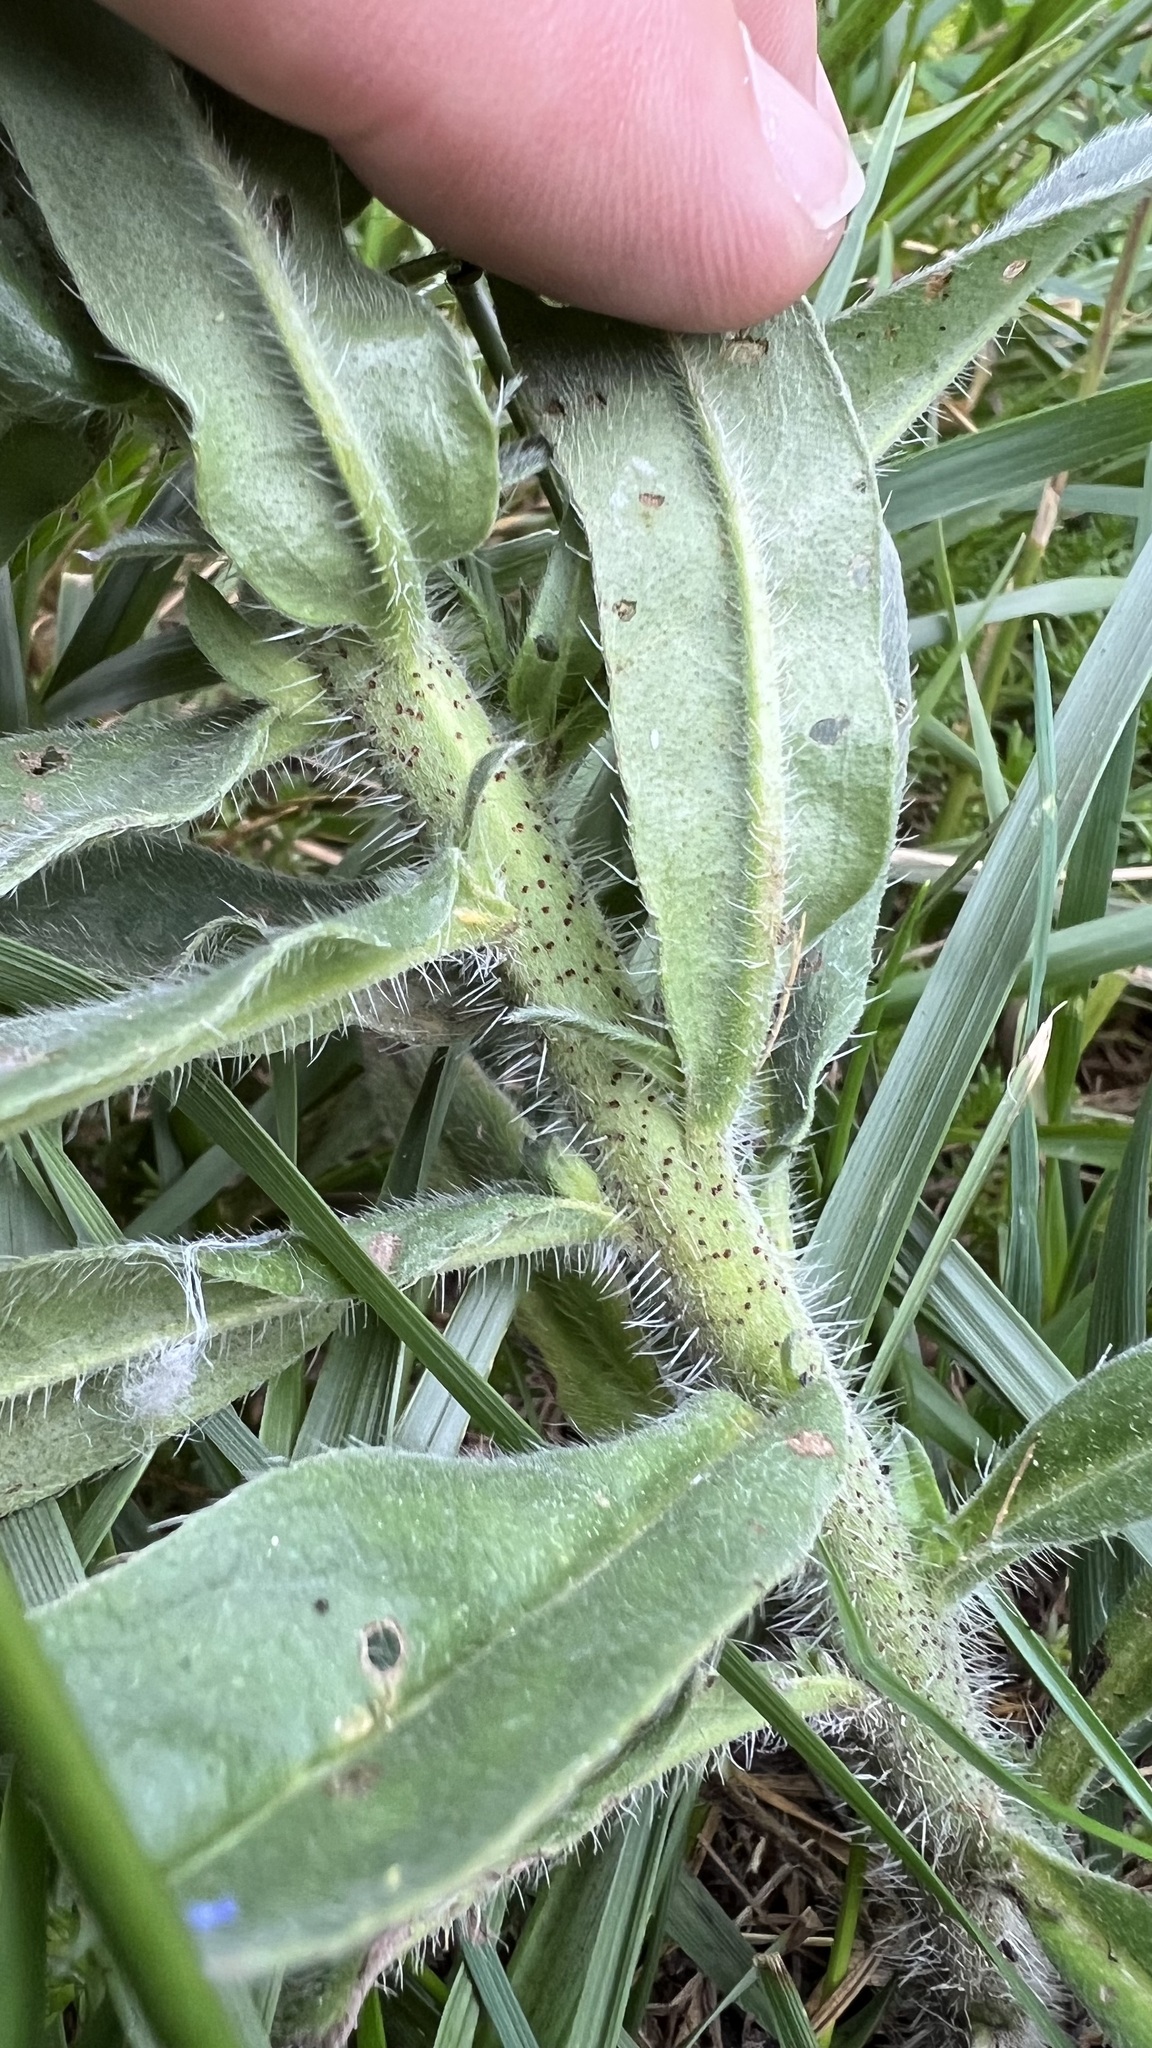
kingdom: Plantae
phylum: Tracheophyta
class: Magnoliopsida
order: Boraginales
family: Boraginaceae
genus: Echium
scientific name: Echium vulgare
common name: Common viper's bugloss
